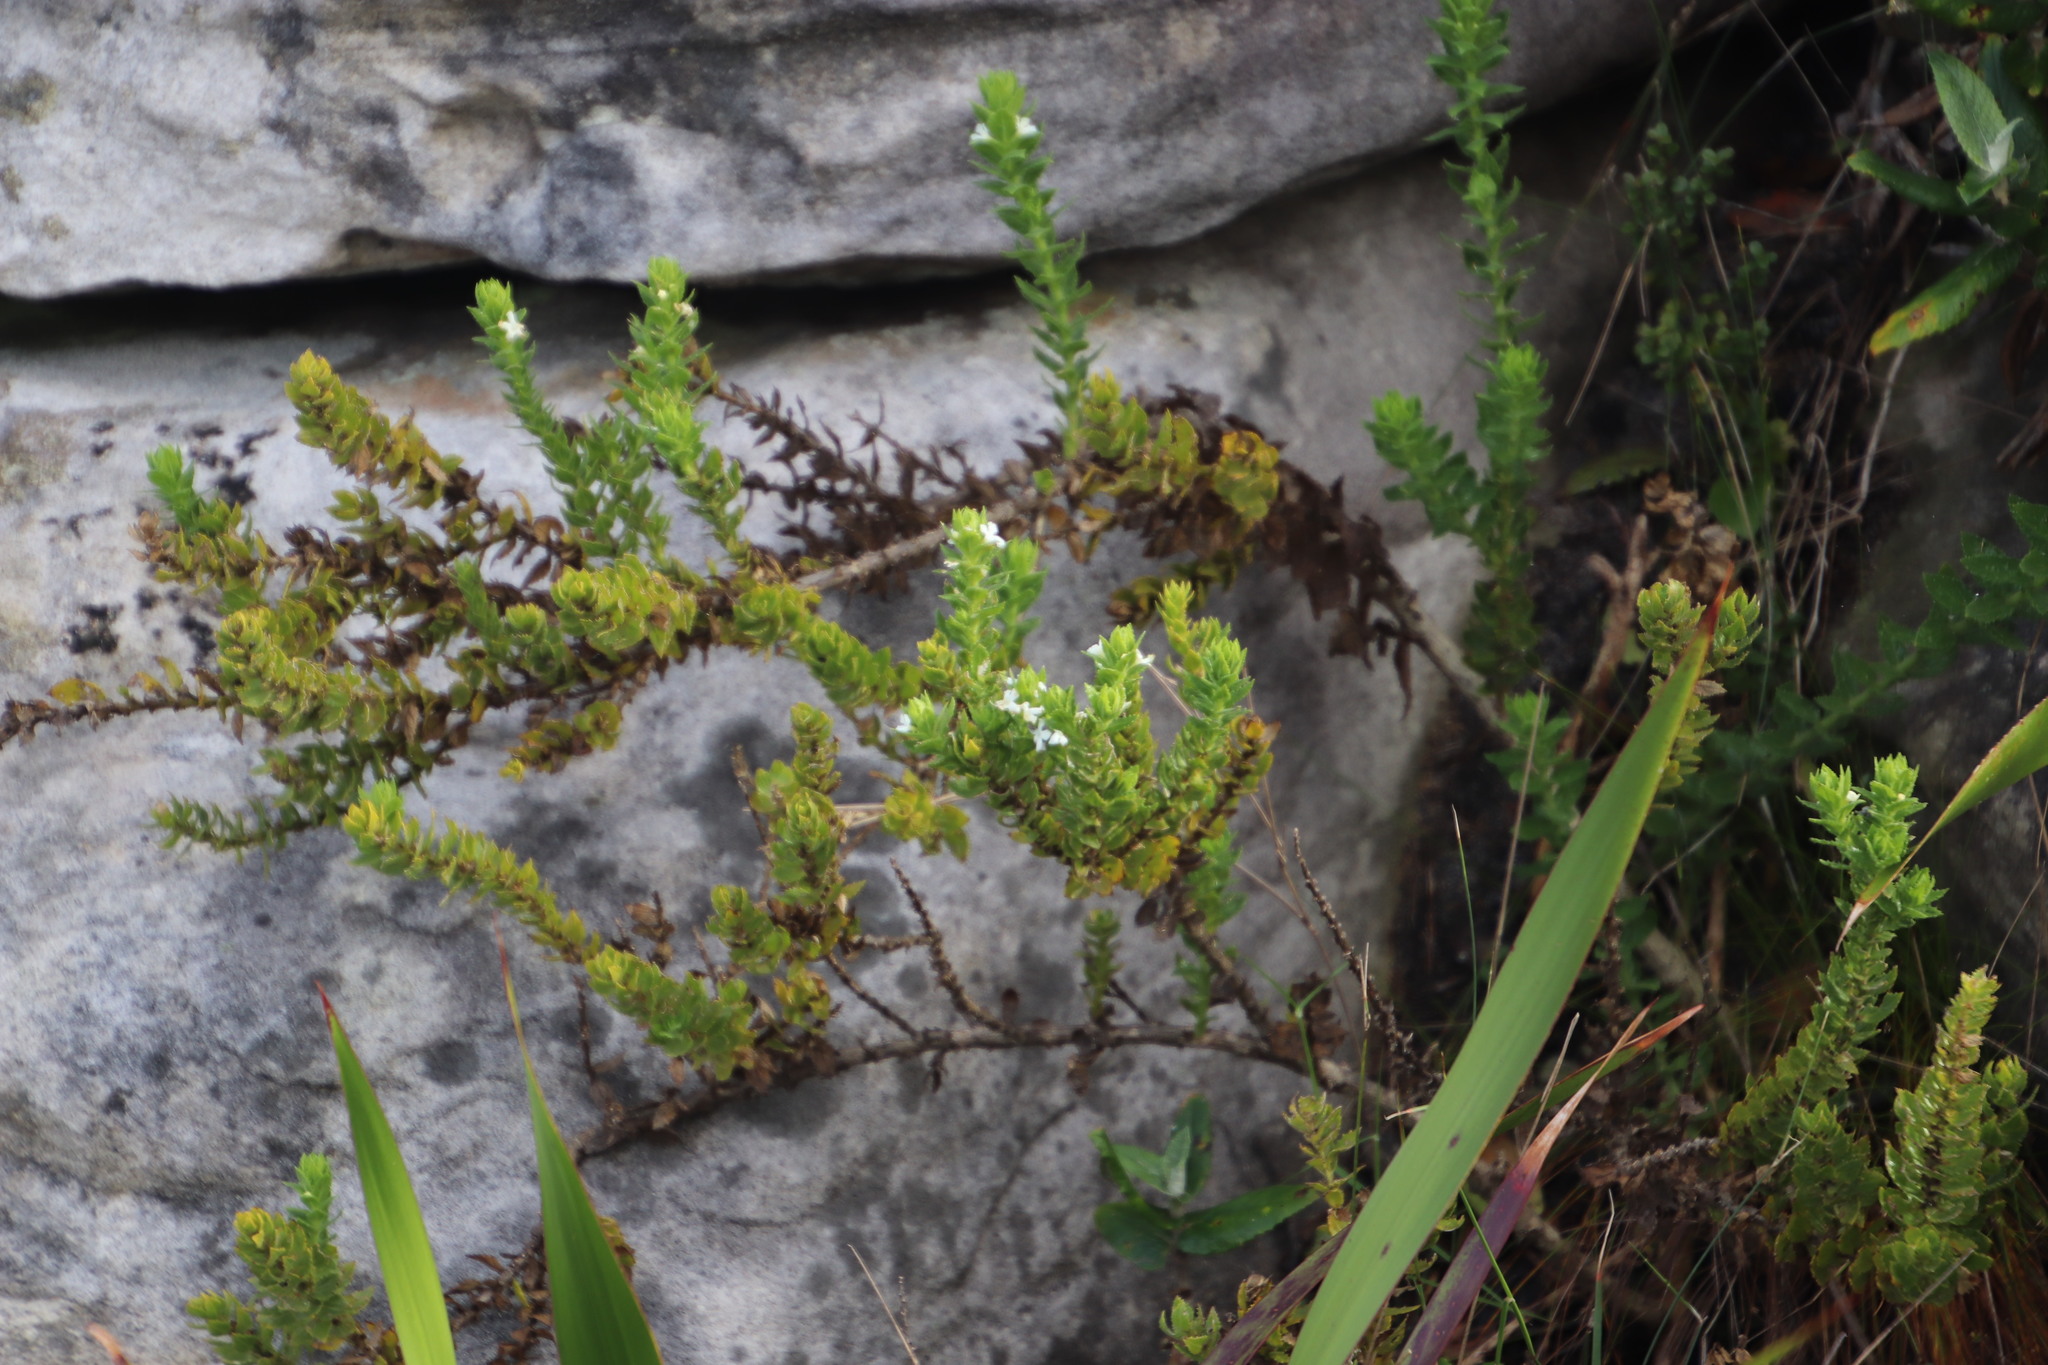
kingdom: Plantae
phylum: Tracheophyta
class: Magnoliopsida
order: Lamiales
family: Scrophulariaceae
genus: Oftia
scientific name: Oftia africana
